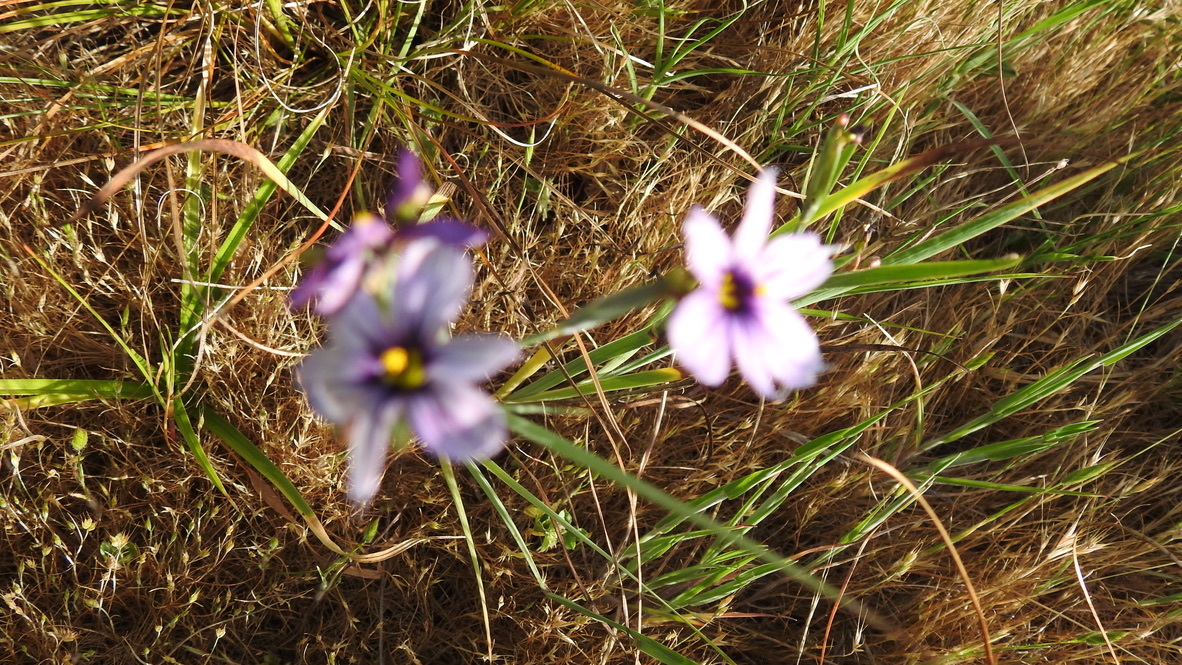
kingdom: Plantae
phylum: Tracheophyta
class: Liliopsida
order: Asparagales
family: Iridaceae
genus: Sisyrinchium
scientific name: Sisyrinchium bellum
